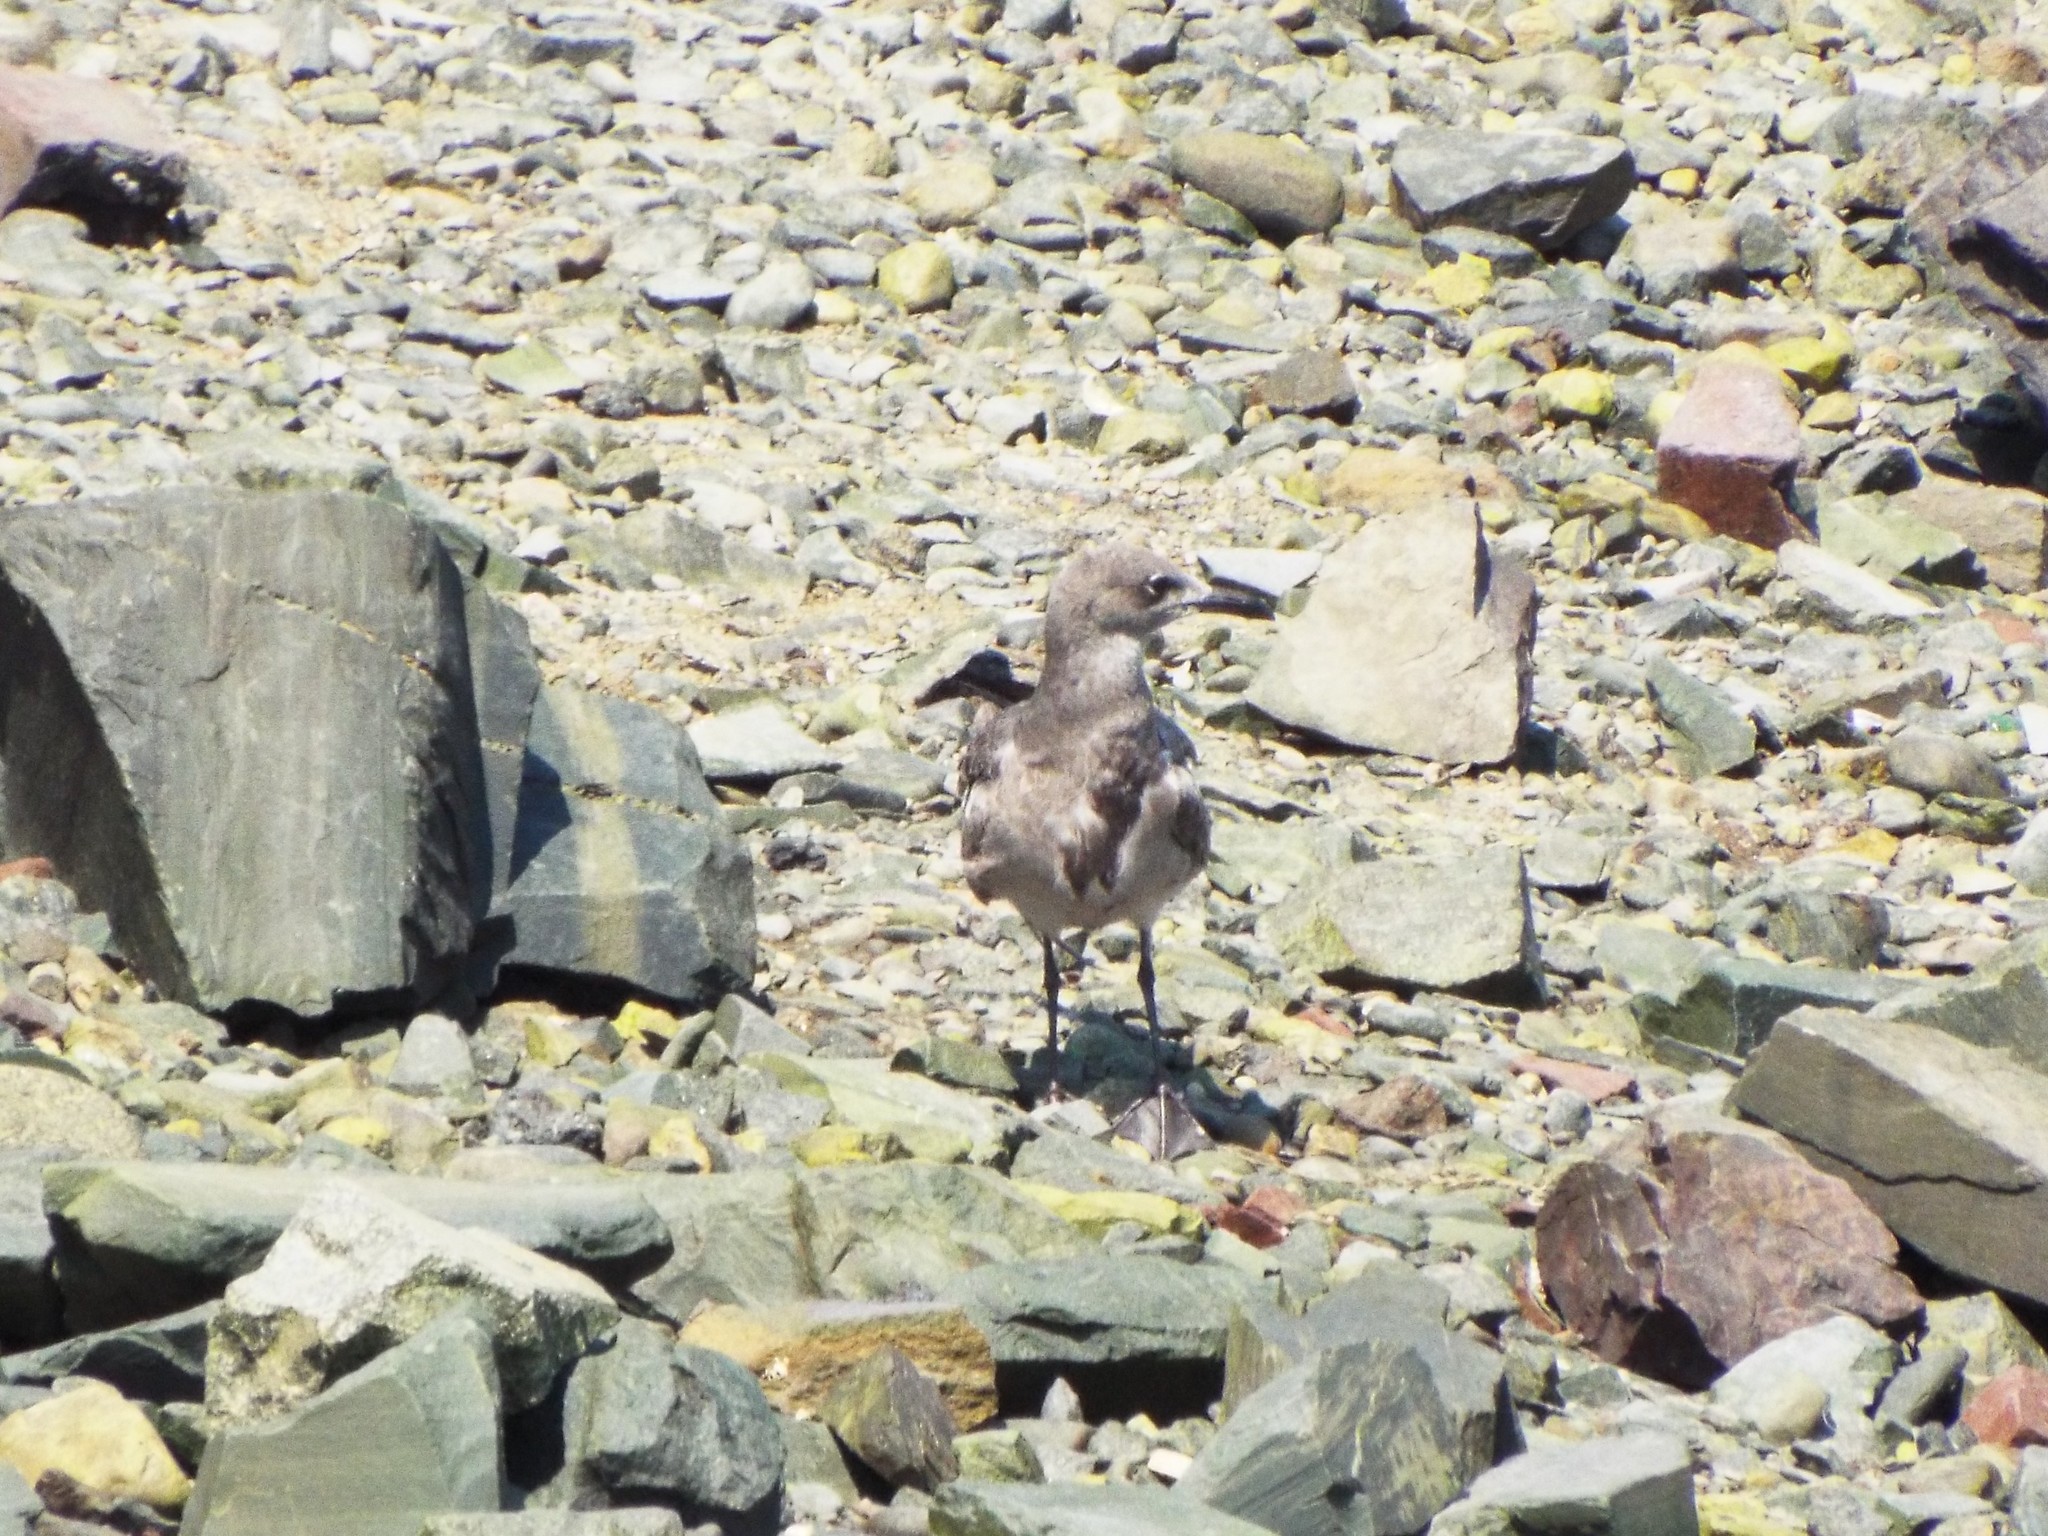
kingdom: Animalia
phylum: Chordata
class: Aves
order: Charadriiformes
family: Laridae
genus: Leucophaeus
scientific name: Leucophaeus atricilla
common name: Laughing gull
